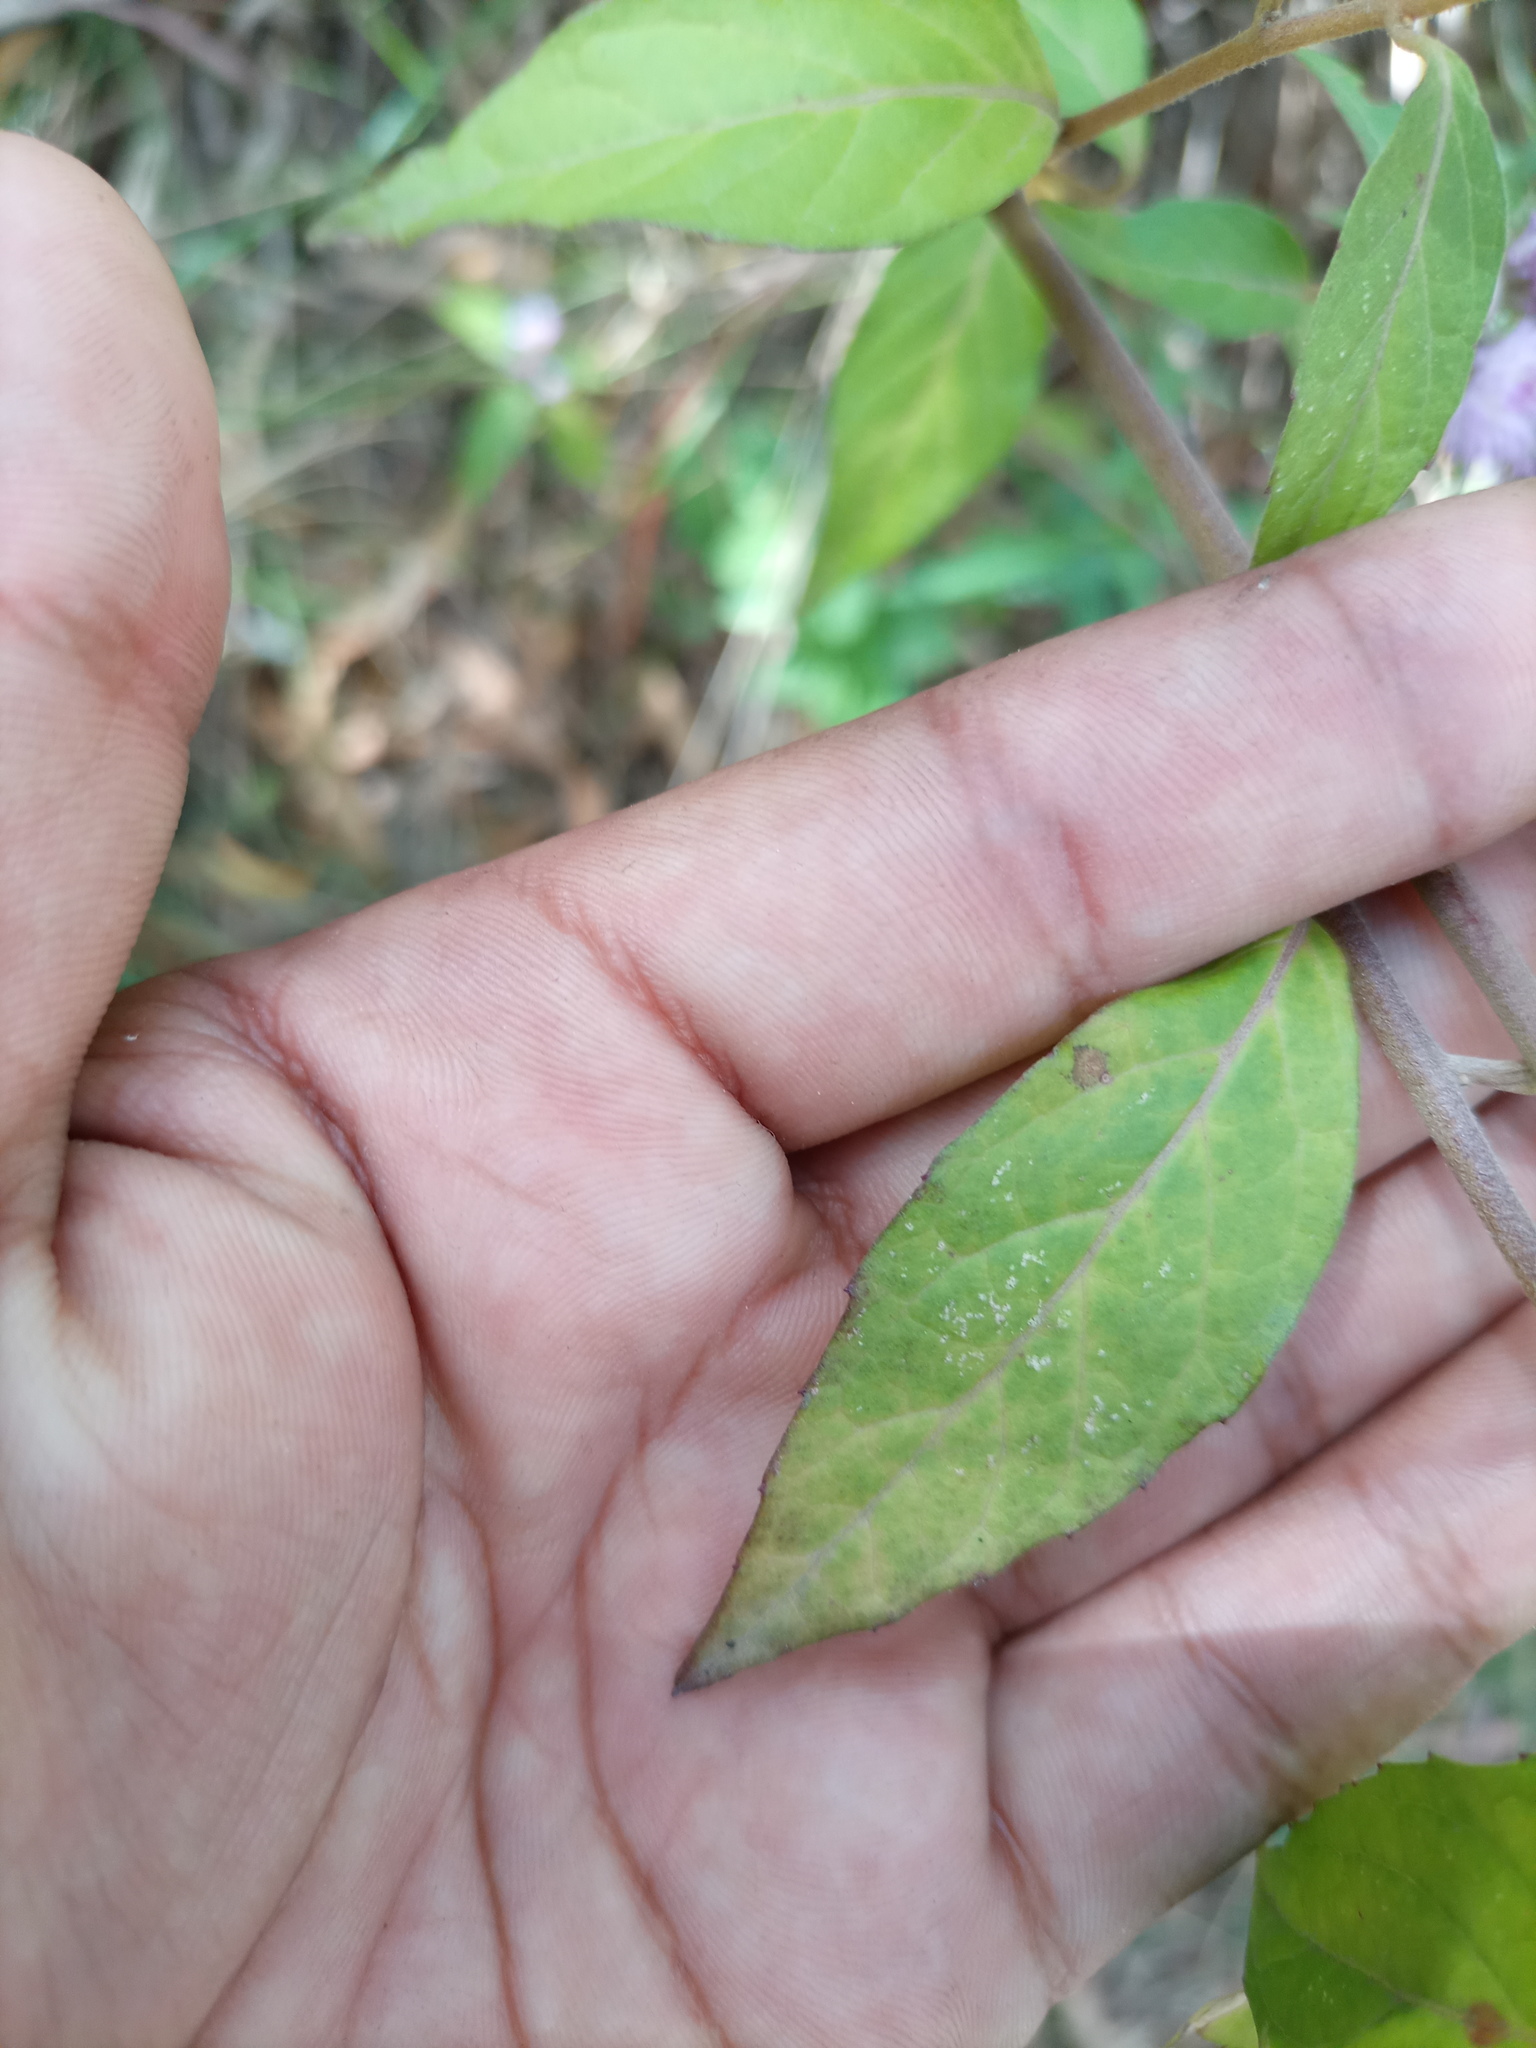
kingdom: Plantae
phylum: Tracheophyta
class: Magnoliopsida
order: Asterales
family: Asteraceae
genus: Cyrtocymura
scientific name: Cyrtocymura scorpioides
